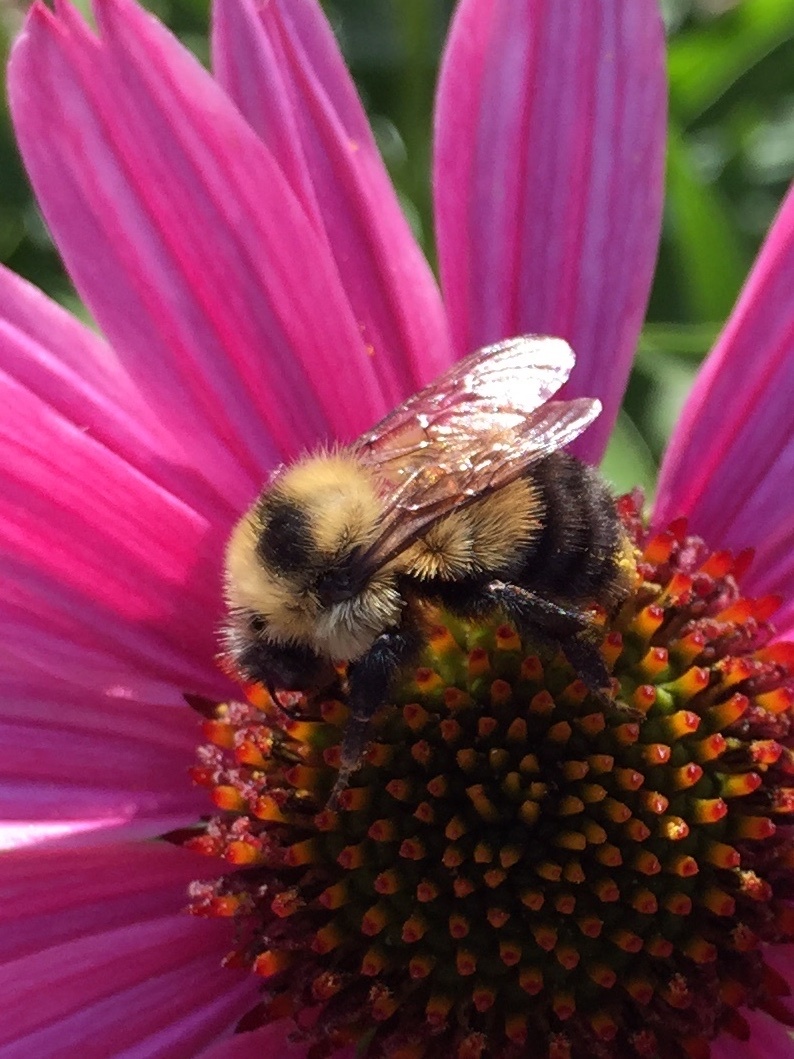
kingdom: Animalia
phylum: Arthropoda
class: Insecta
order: Hymenoptera
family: Apidae
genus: Bombus
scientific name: Bombus rufocinctus
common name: Red-belted bumble bee
